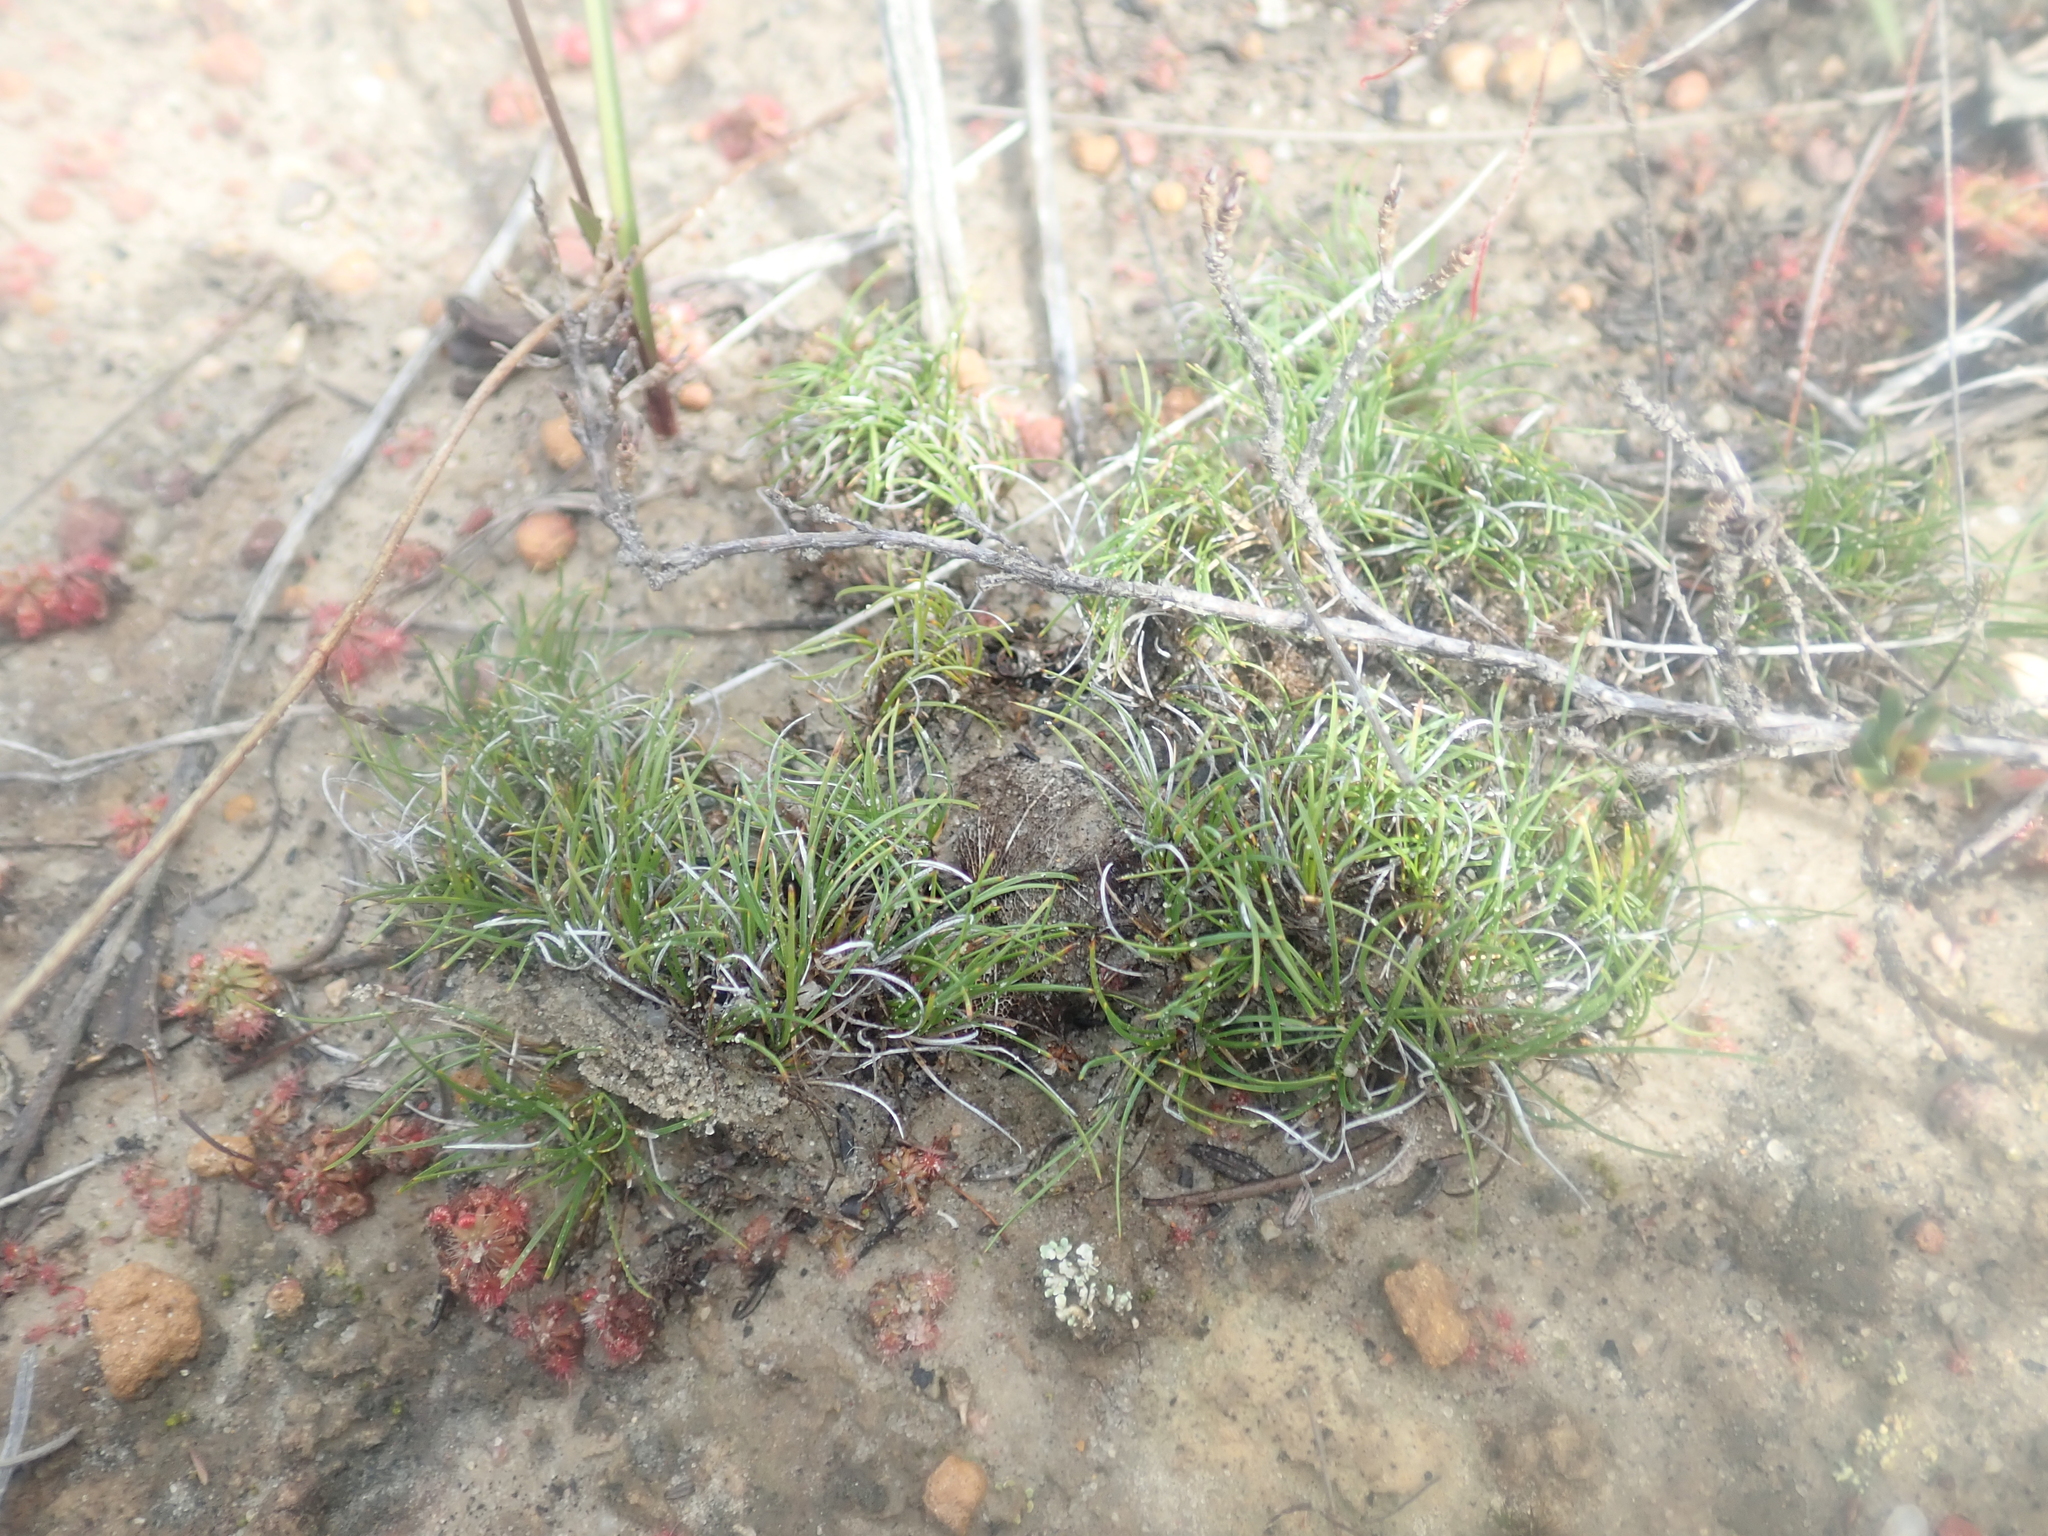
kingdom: Plantae
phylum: Tracheophyta
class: Liliopsida
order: Poales
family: Cyperaceae
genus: Schoenus
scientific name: Schoenus clandestinus
